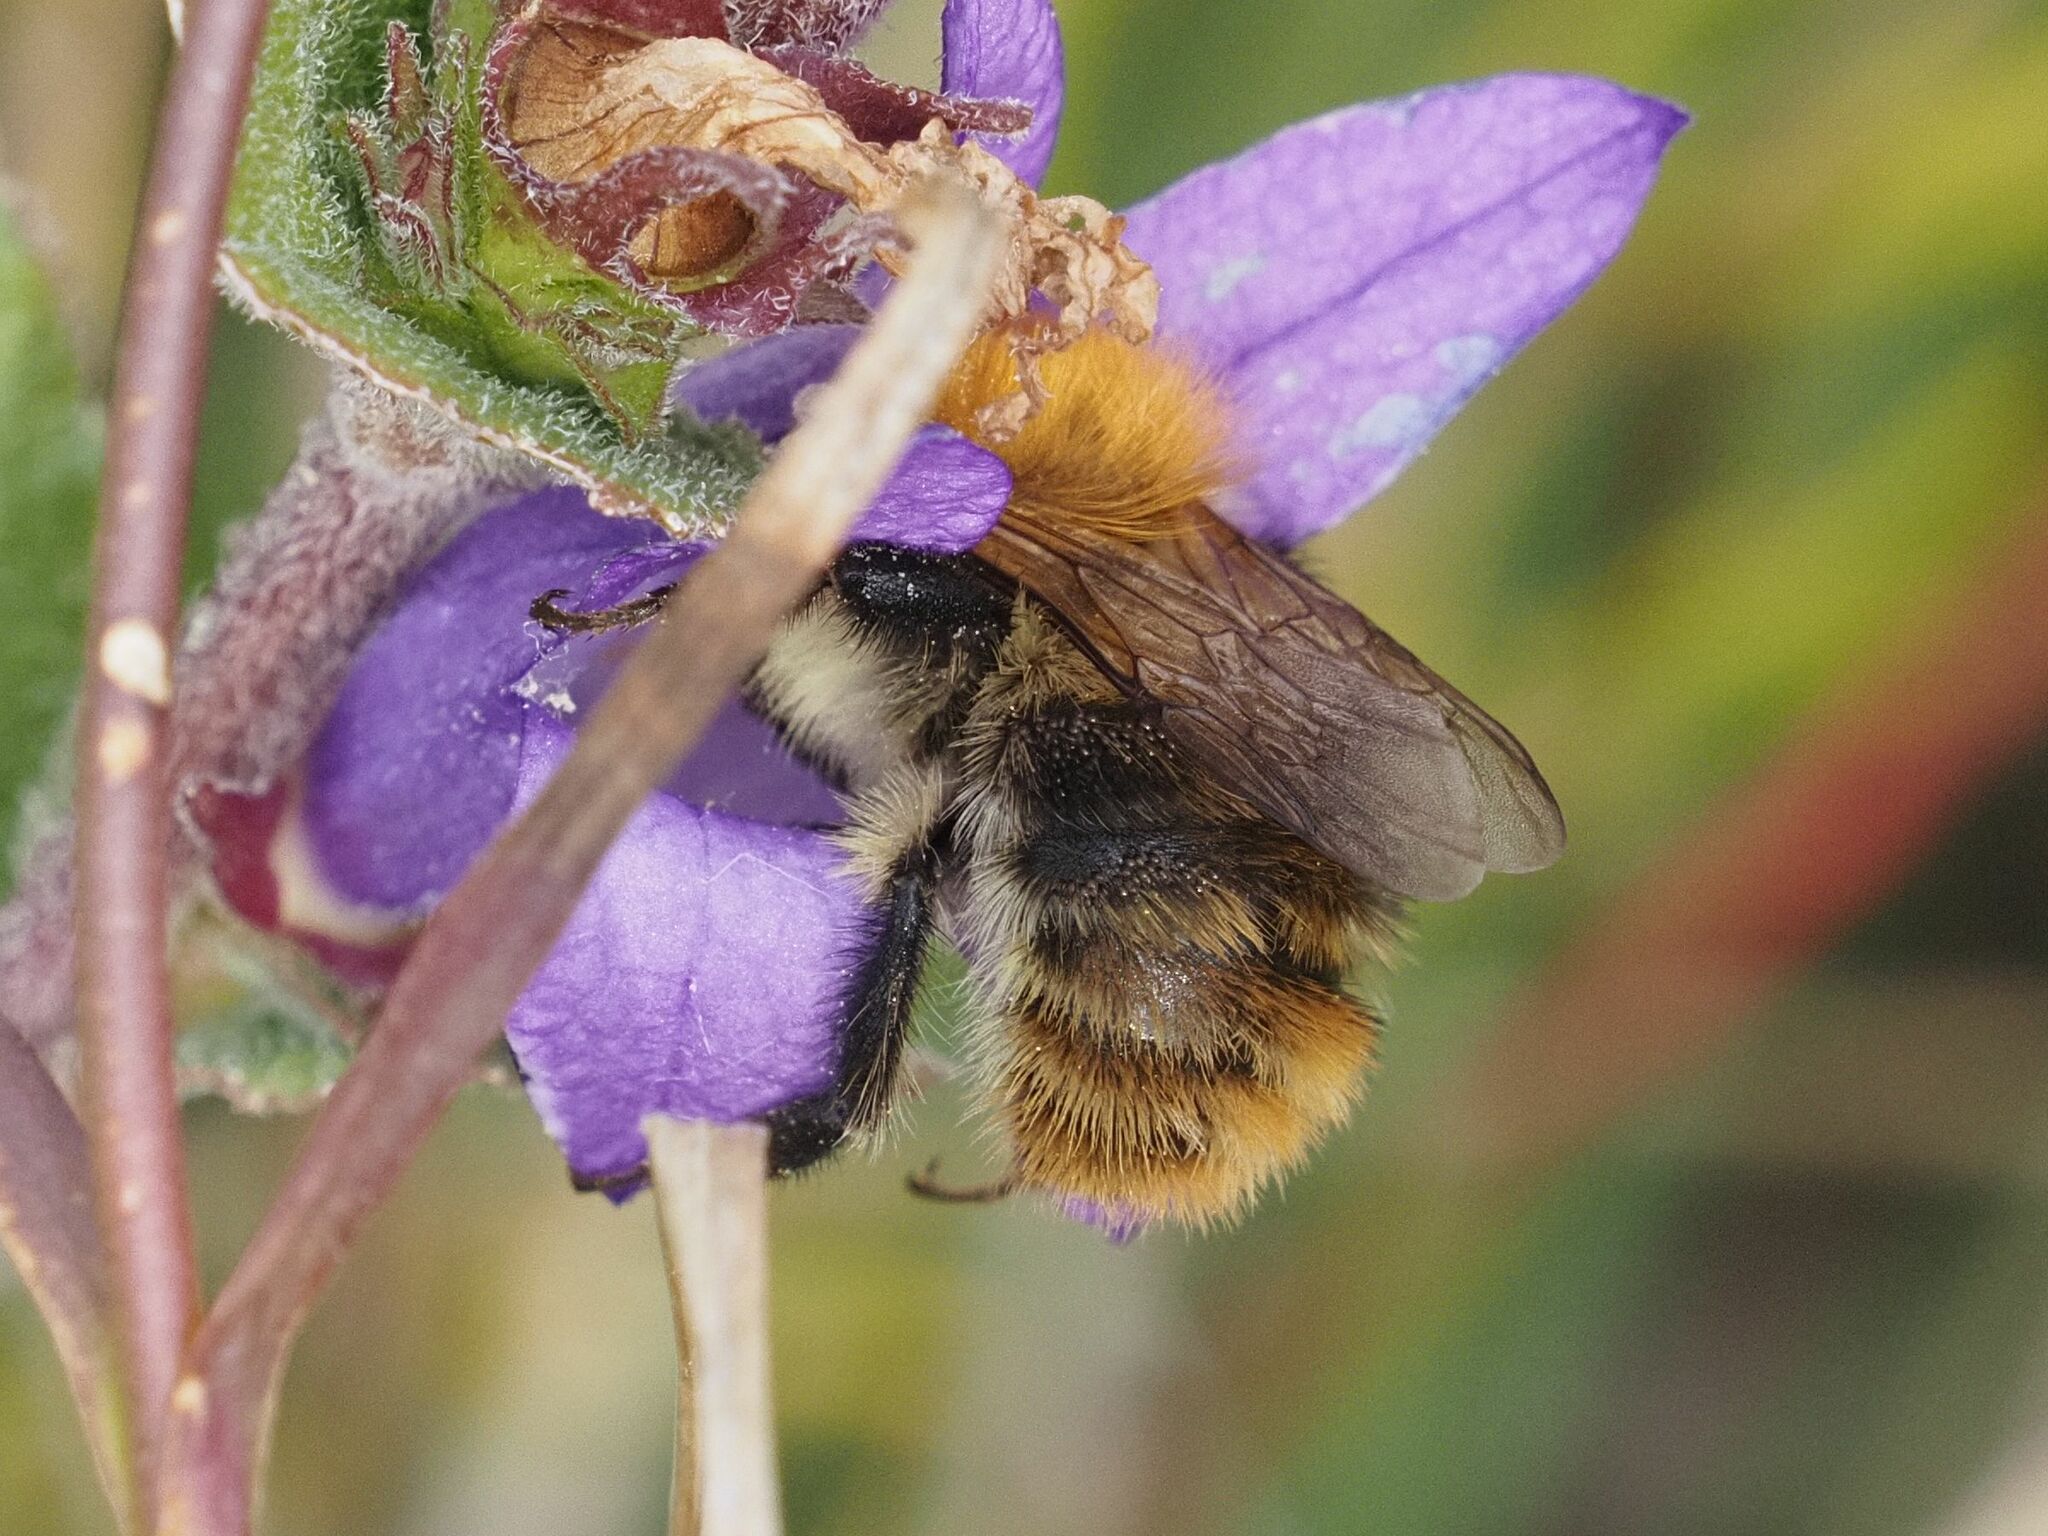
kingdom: Animalia
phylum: Arthropoda
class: Insecta
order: Hymenoptera
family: Apidae
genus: Bombus
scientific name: Bombus pascuorum
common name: Common carder bee
